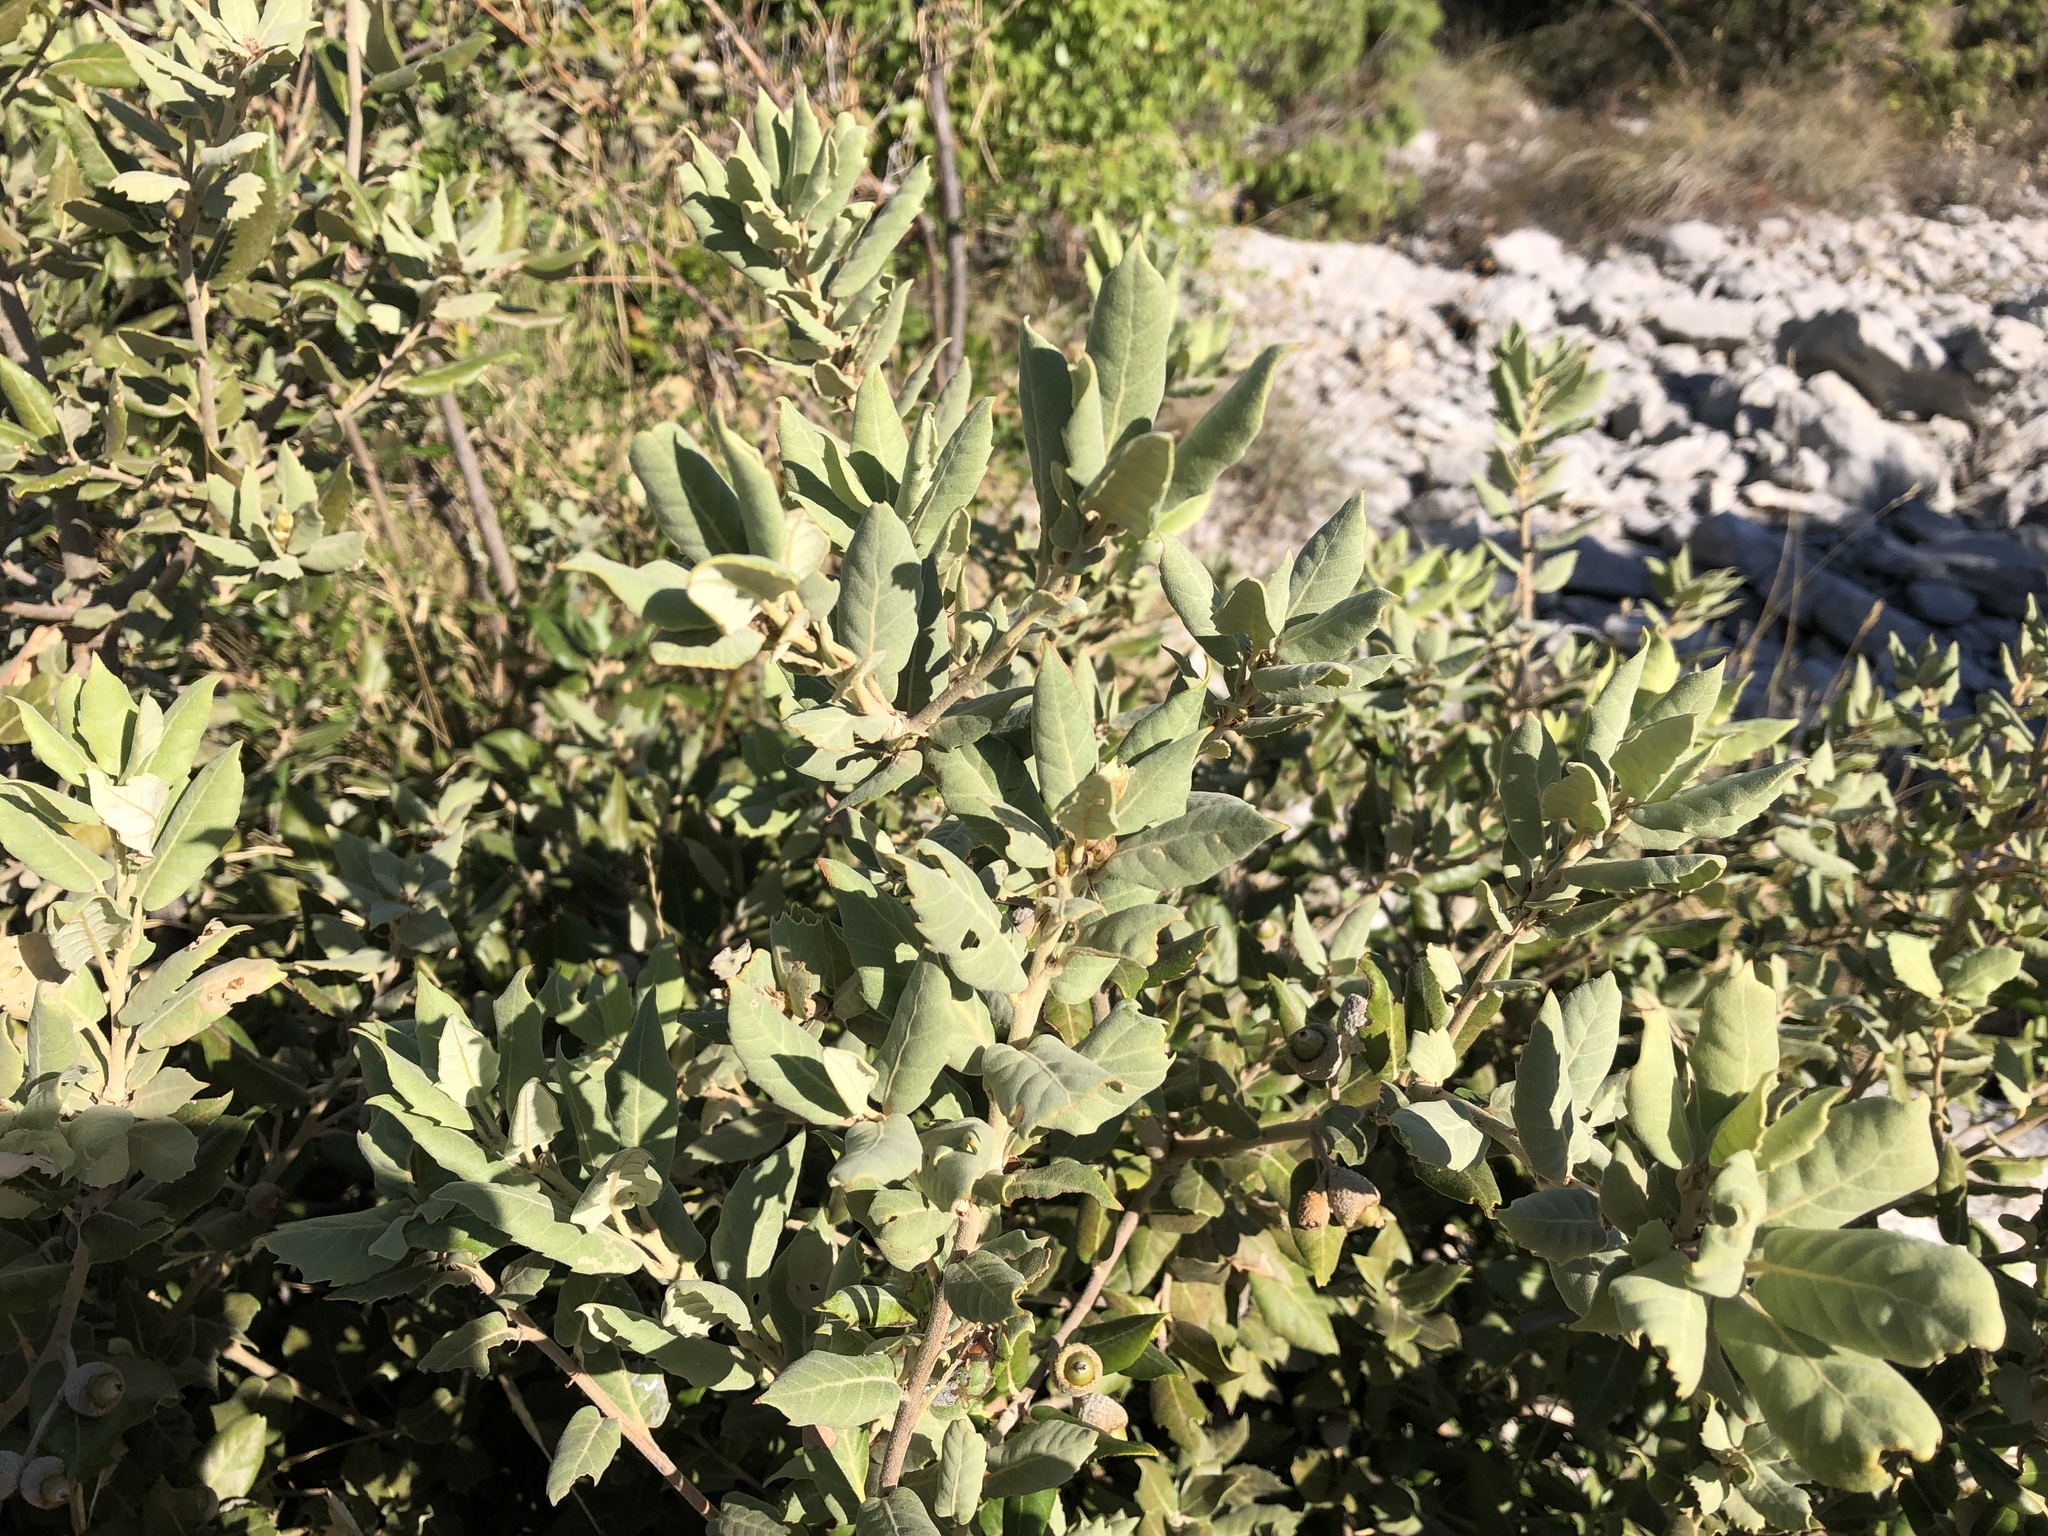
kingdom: Plantae
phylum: Tracheophyta
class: Magnoliopsida
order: Fagales
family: Fagaceae
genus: Quercus
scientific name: Quercus ilex
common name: Evergreen oak
